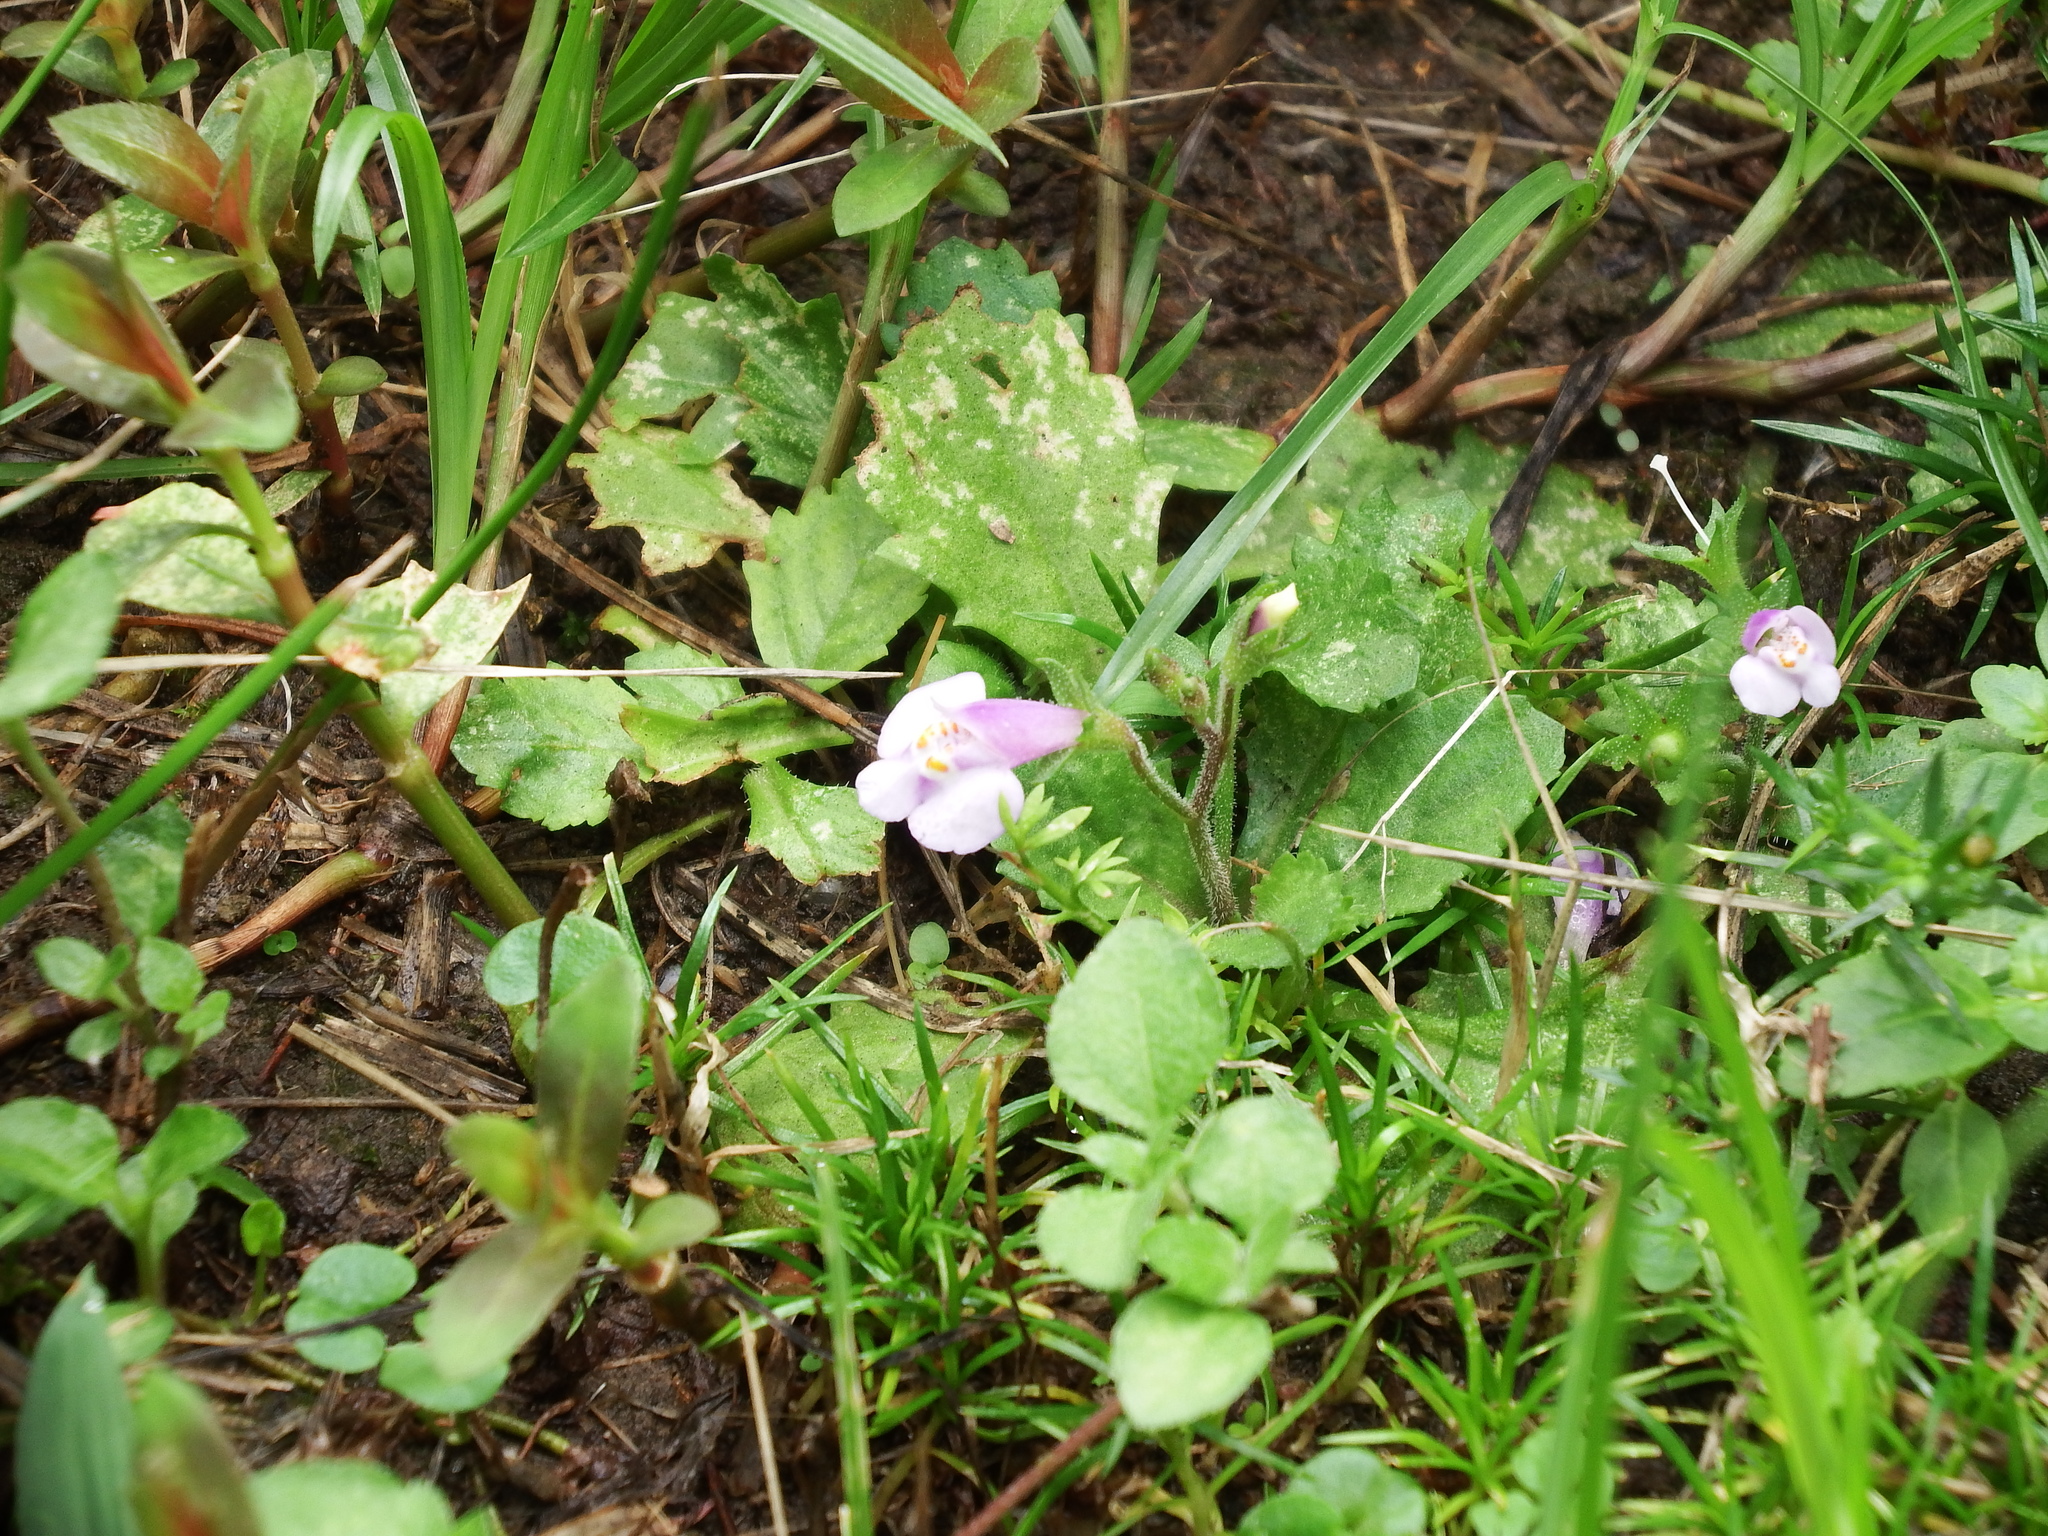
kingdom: Plantae
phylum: Tracheophyta
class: Magnoliopsida
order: Lamiales
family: Mazaceae
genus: Mazus
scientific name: Mazus pumilus
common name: Japanese mazus
